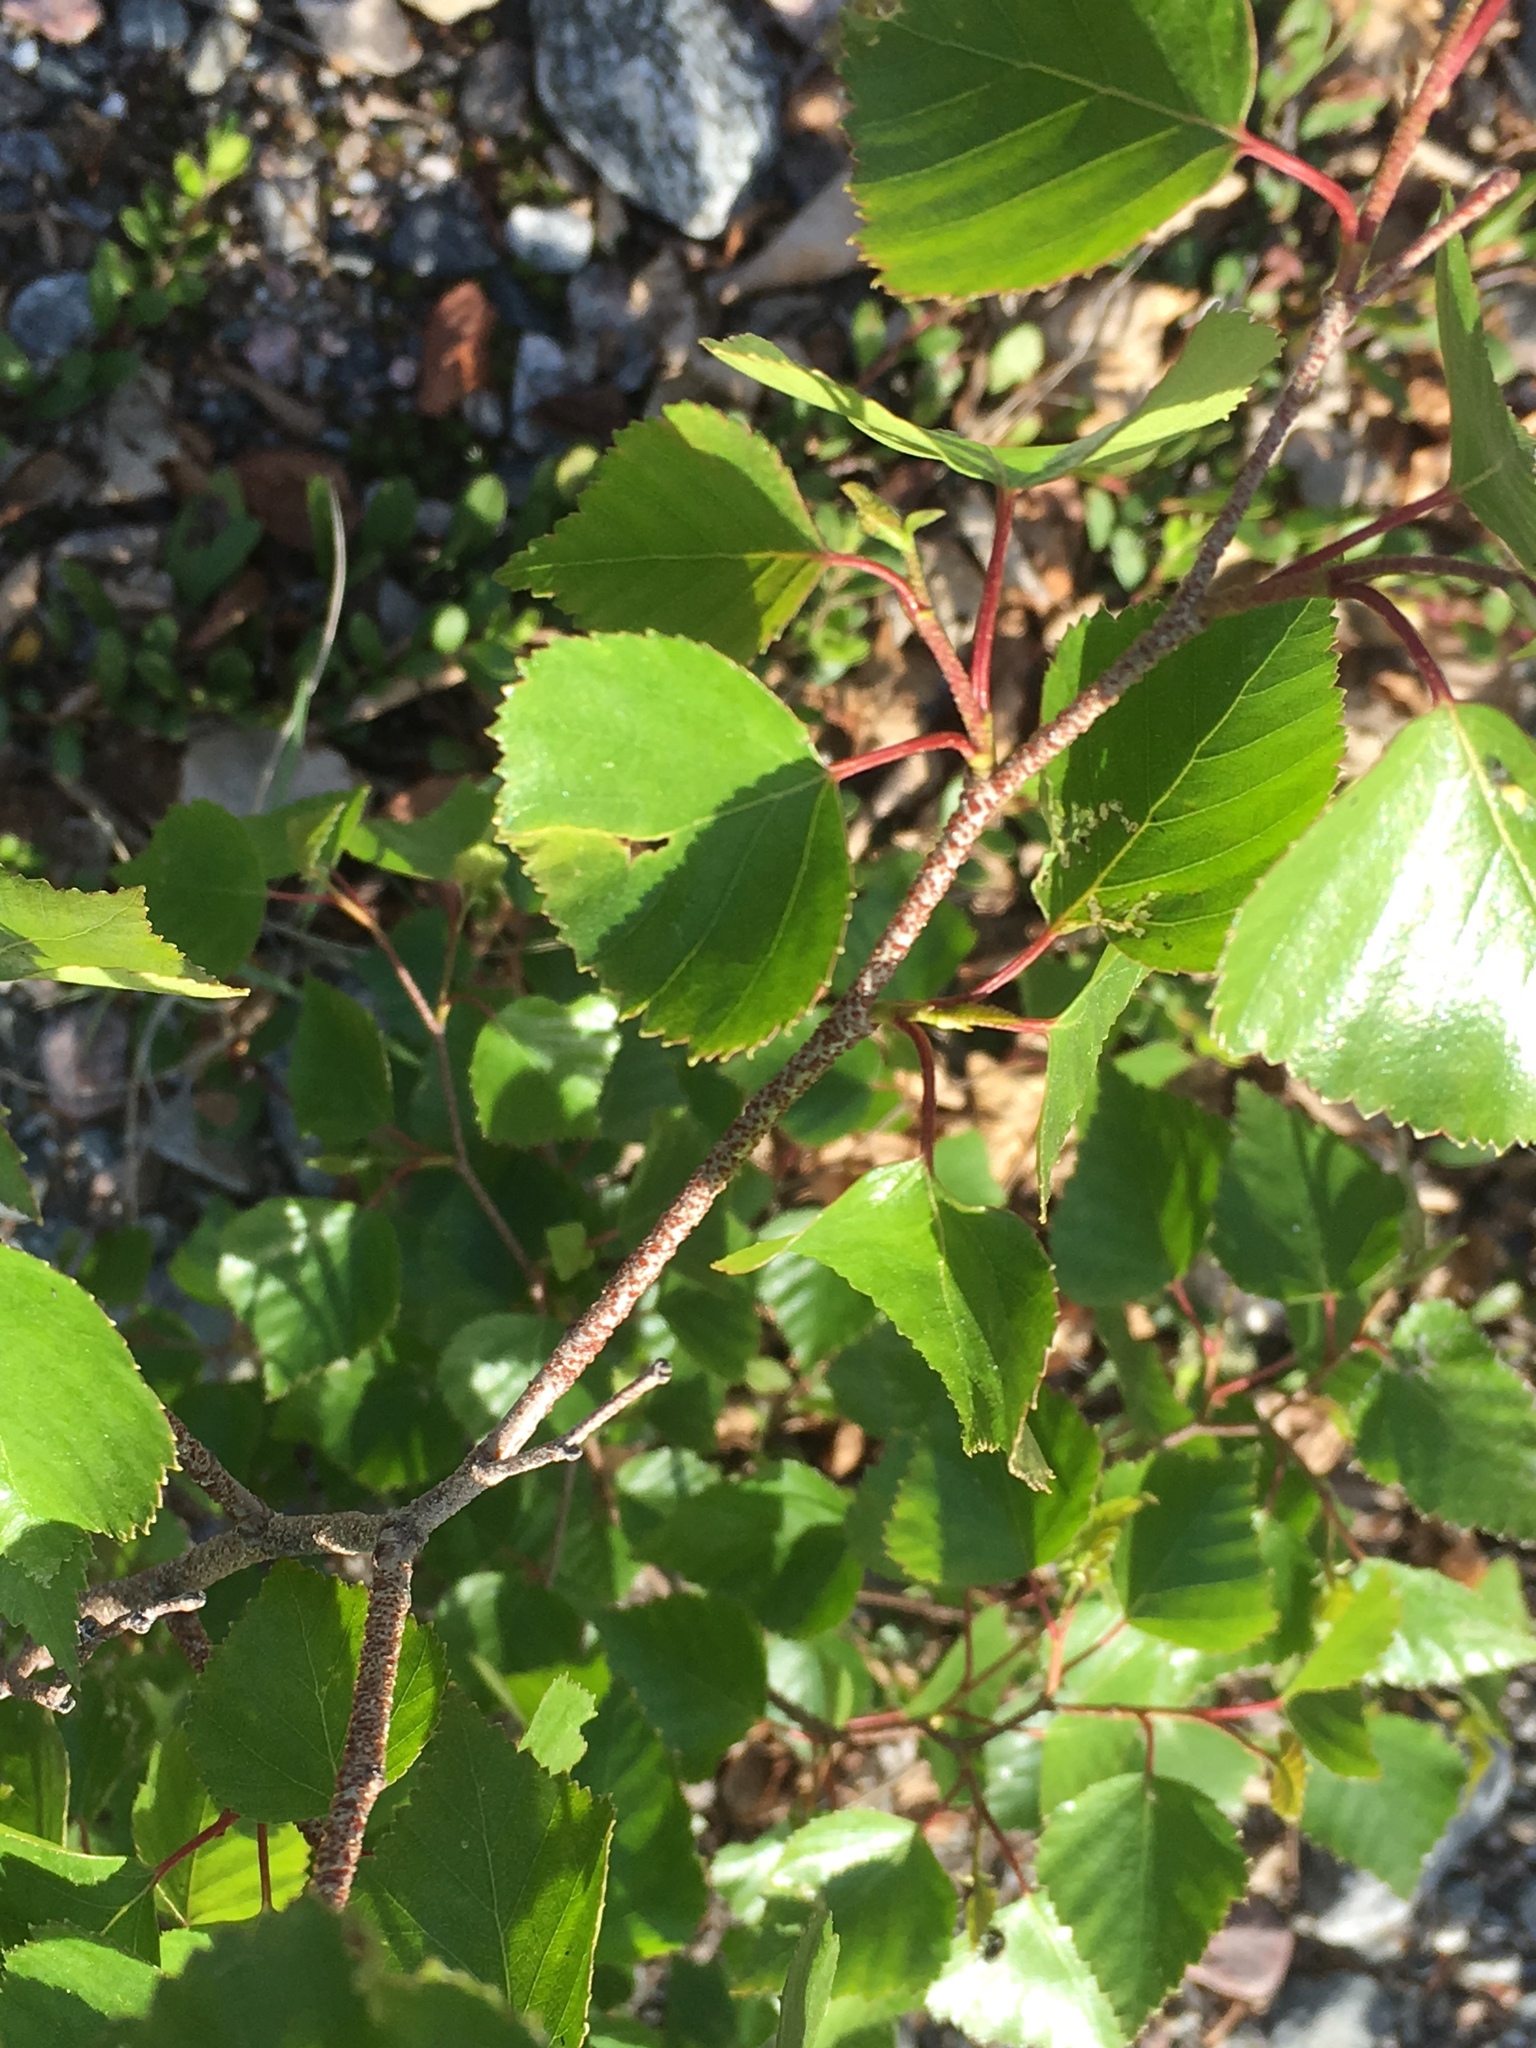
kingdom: Plantae
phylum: Tracheophyta
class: Magnoliopsida
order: Fagales
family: Betulaceae
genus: Betula
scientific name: Betula pendula
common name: Silver birch
